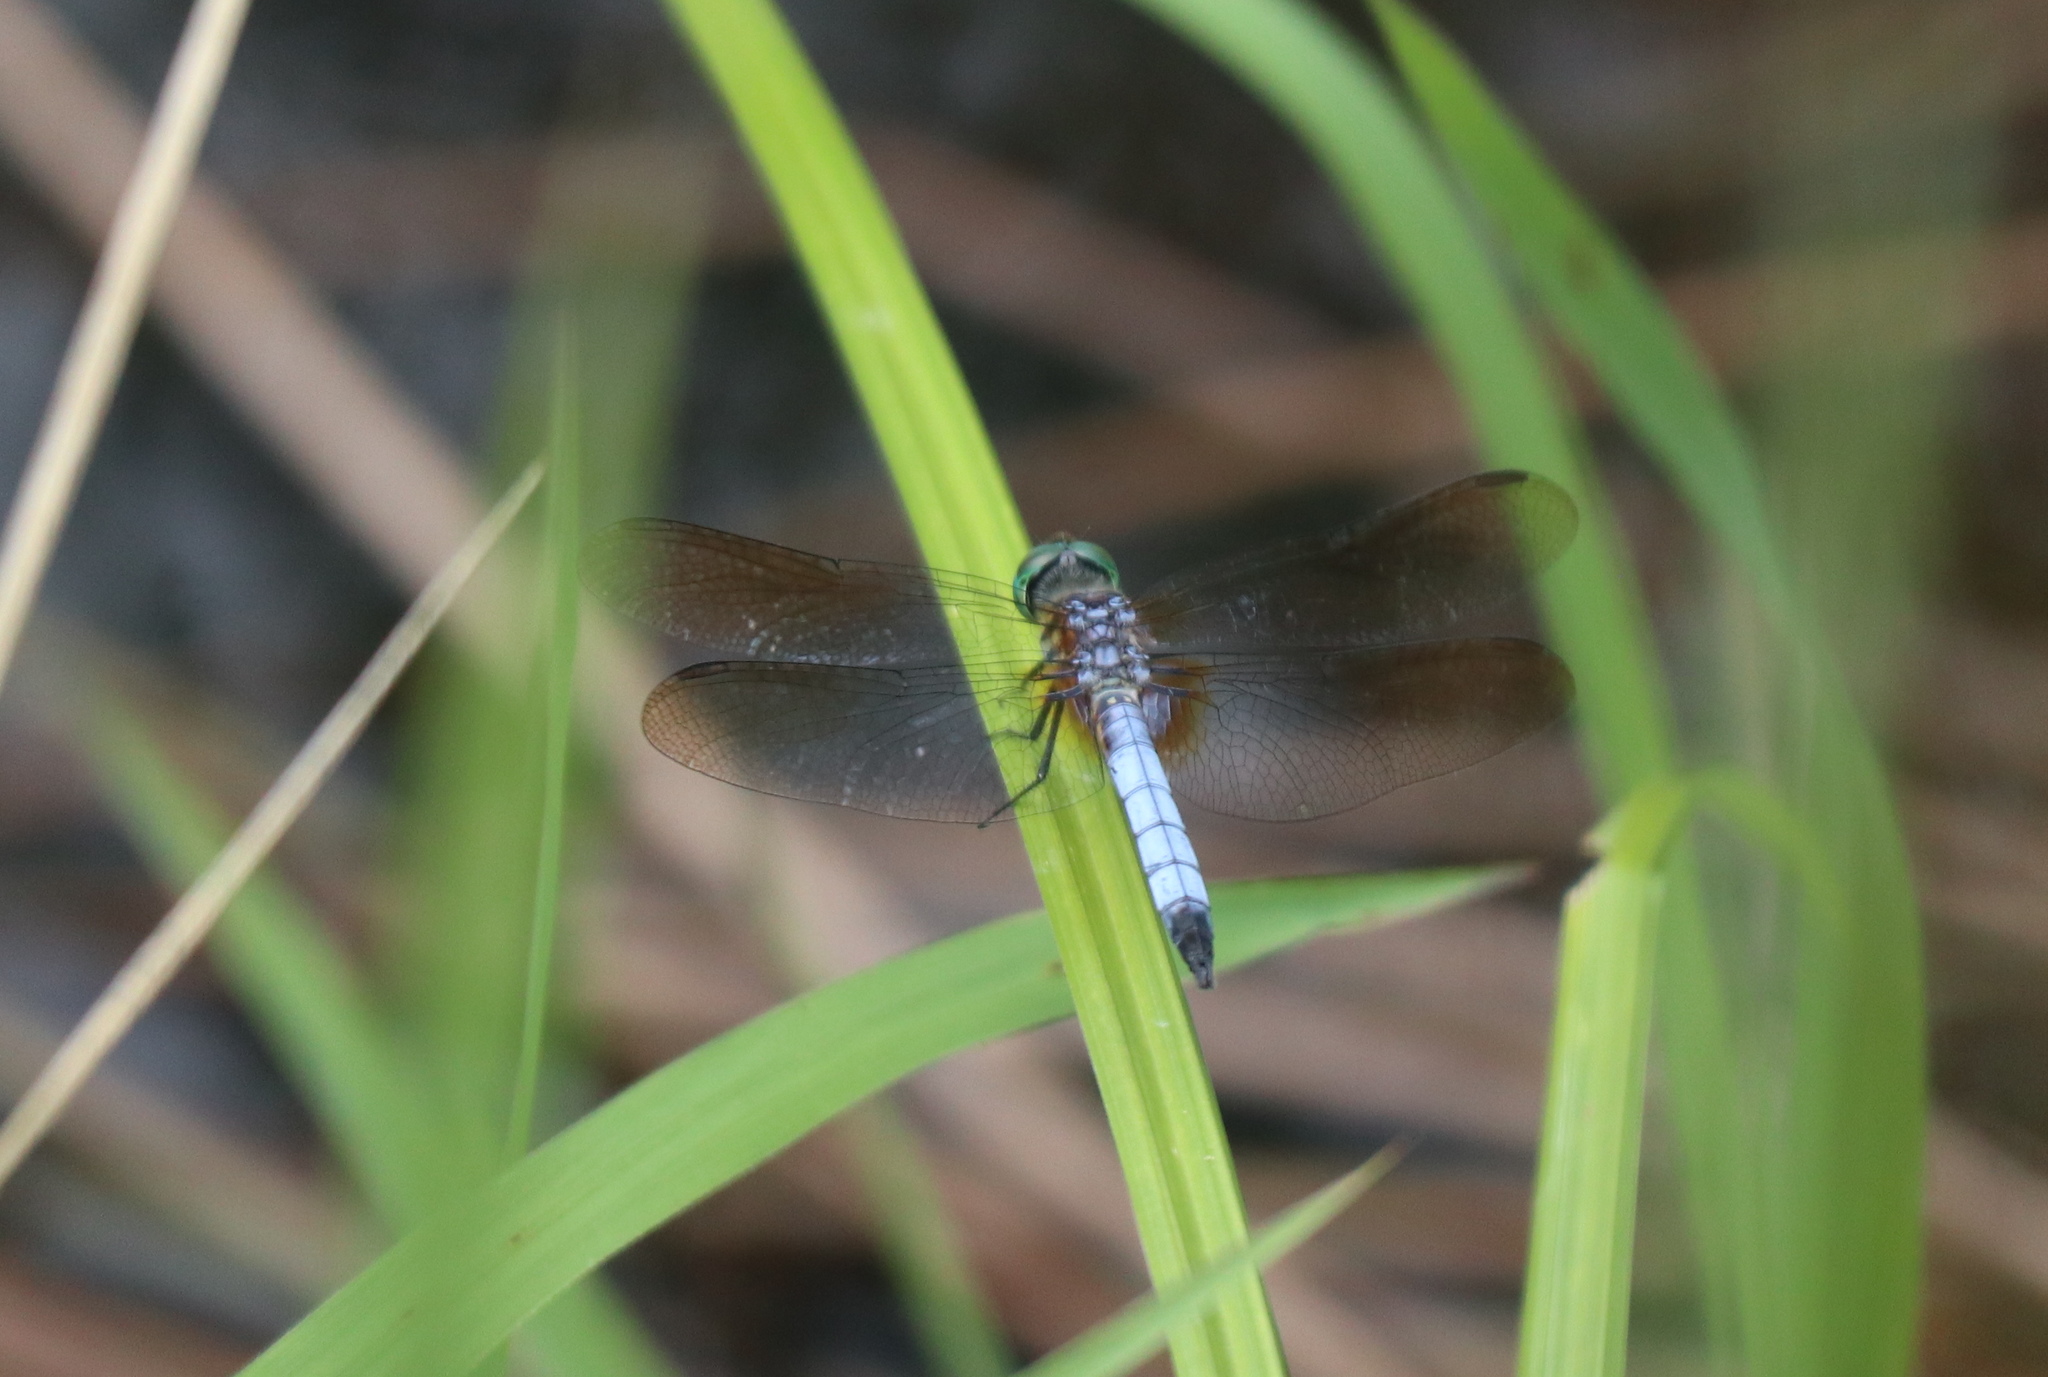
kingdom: Animalia
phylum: Arthropoda
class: Insecta
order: Odonata
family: Libellulidae
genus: Pachydiplax
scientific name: Pachydiplax longipennis
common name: Blue dasher
